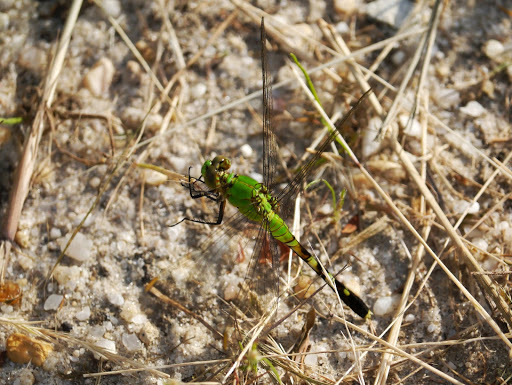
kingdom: Animalia
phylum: Arthropoda
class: Insecta
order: Odonata
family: Libellulidae
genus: Erythemis
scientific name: Erythemis simplicicollis
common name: Eastern pondhawk
